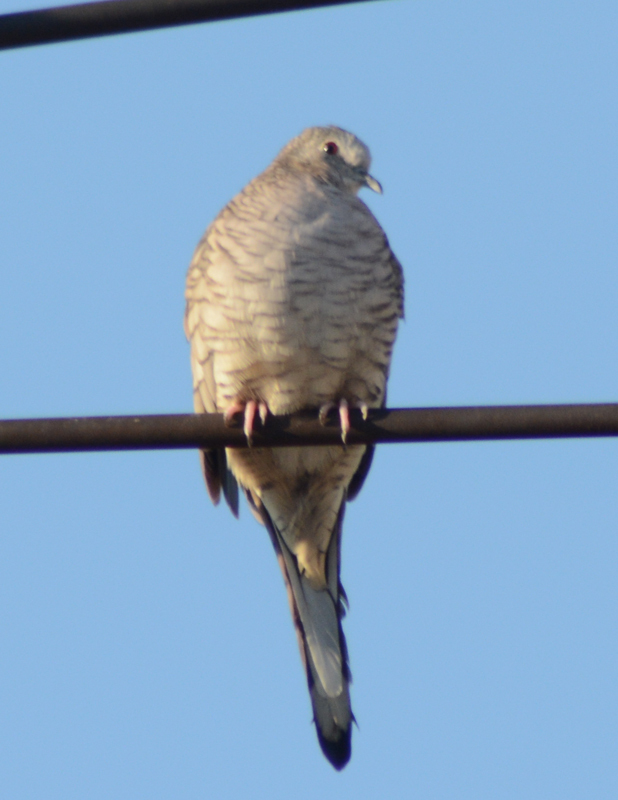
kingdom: Animalia
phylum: Chordata
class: Aves
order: Columbiformes
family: Columbidae
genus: Columbina
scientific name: Columbina inca
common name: Inca dove
